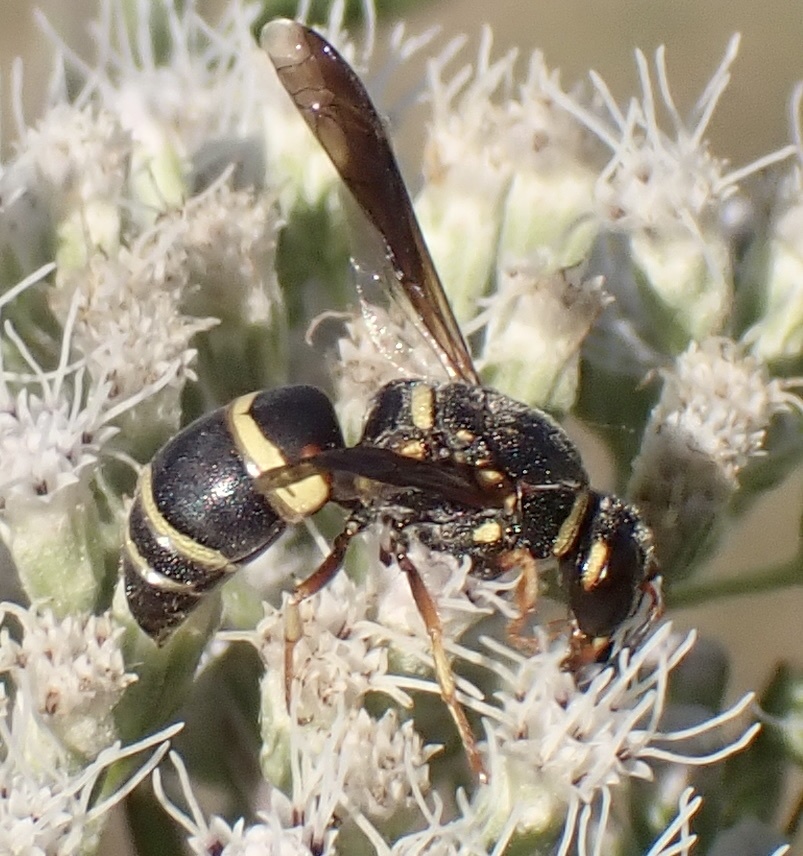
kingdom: Animalia
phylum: Arthropoda
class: Insecta
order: Hymenoptera
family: Eumenidae
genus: Euodynerus
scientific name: Euodynerus hidalgo
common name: Wasp
